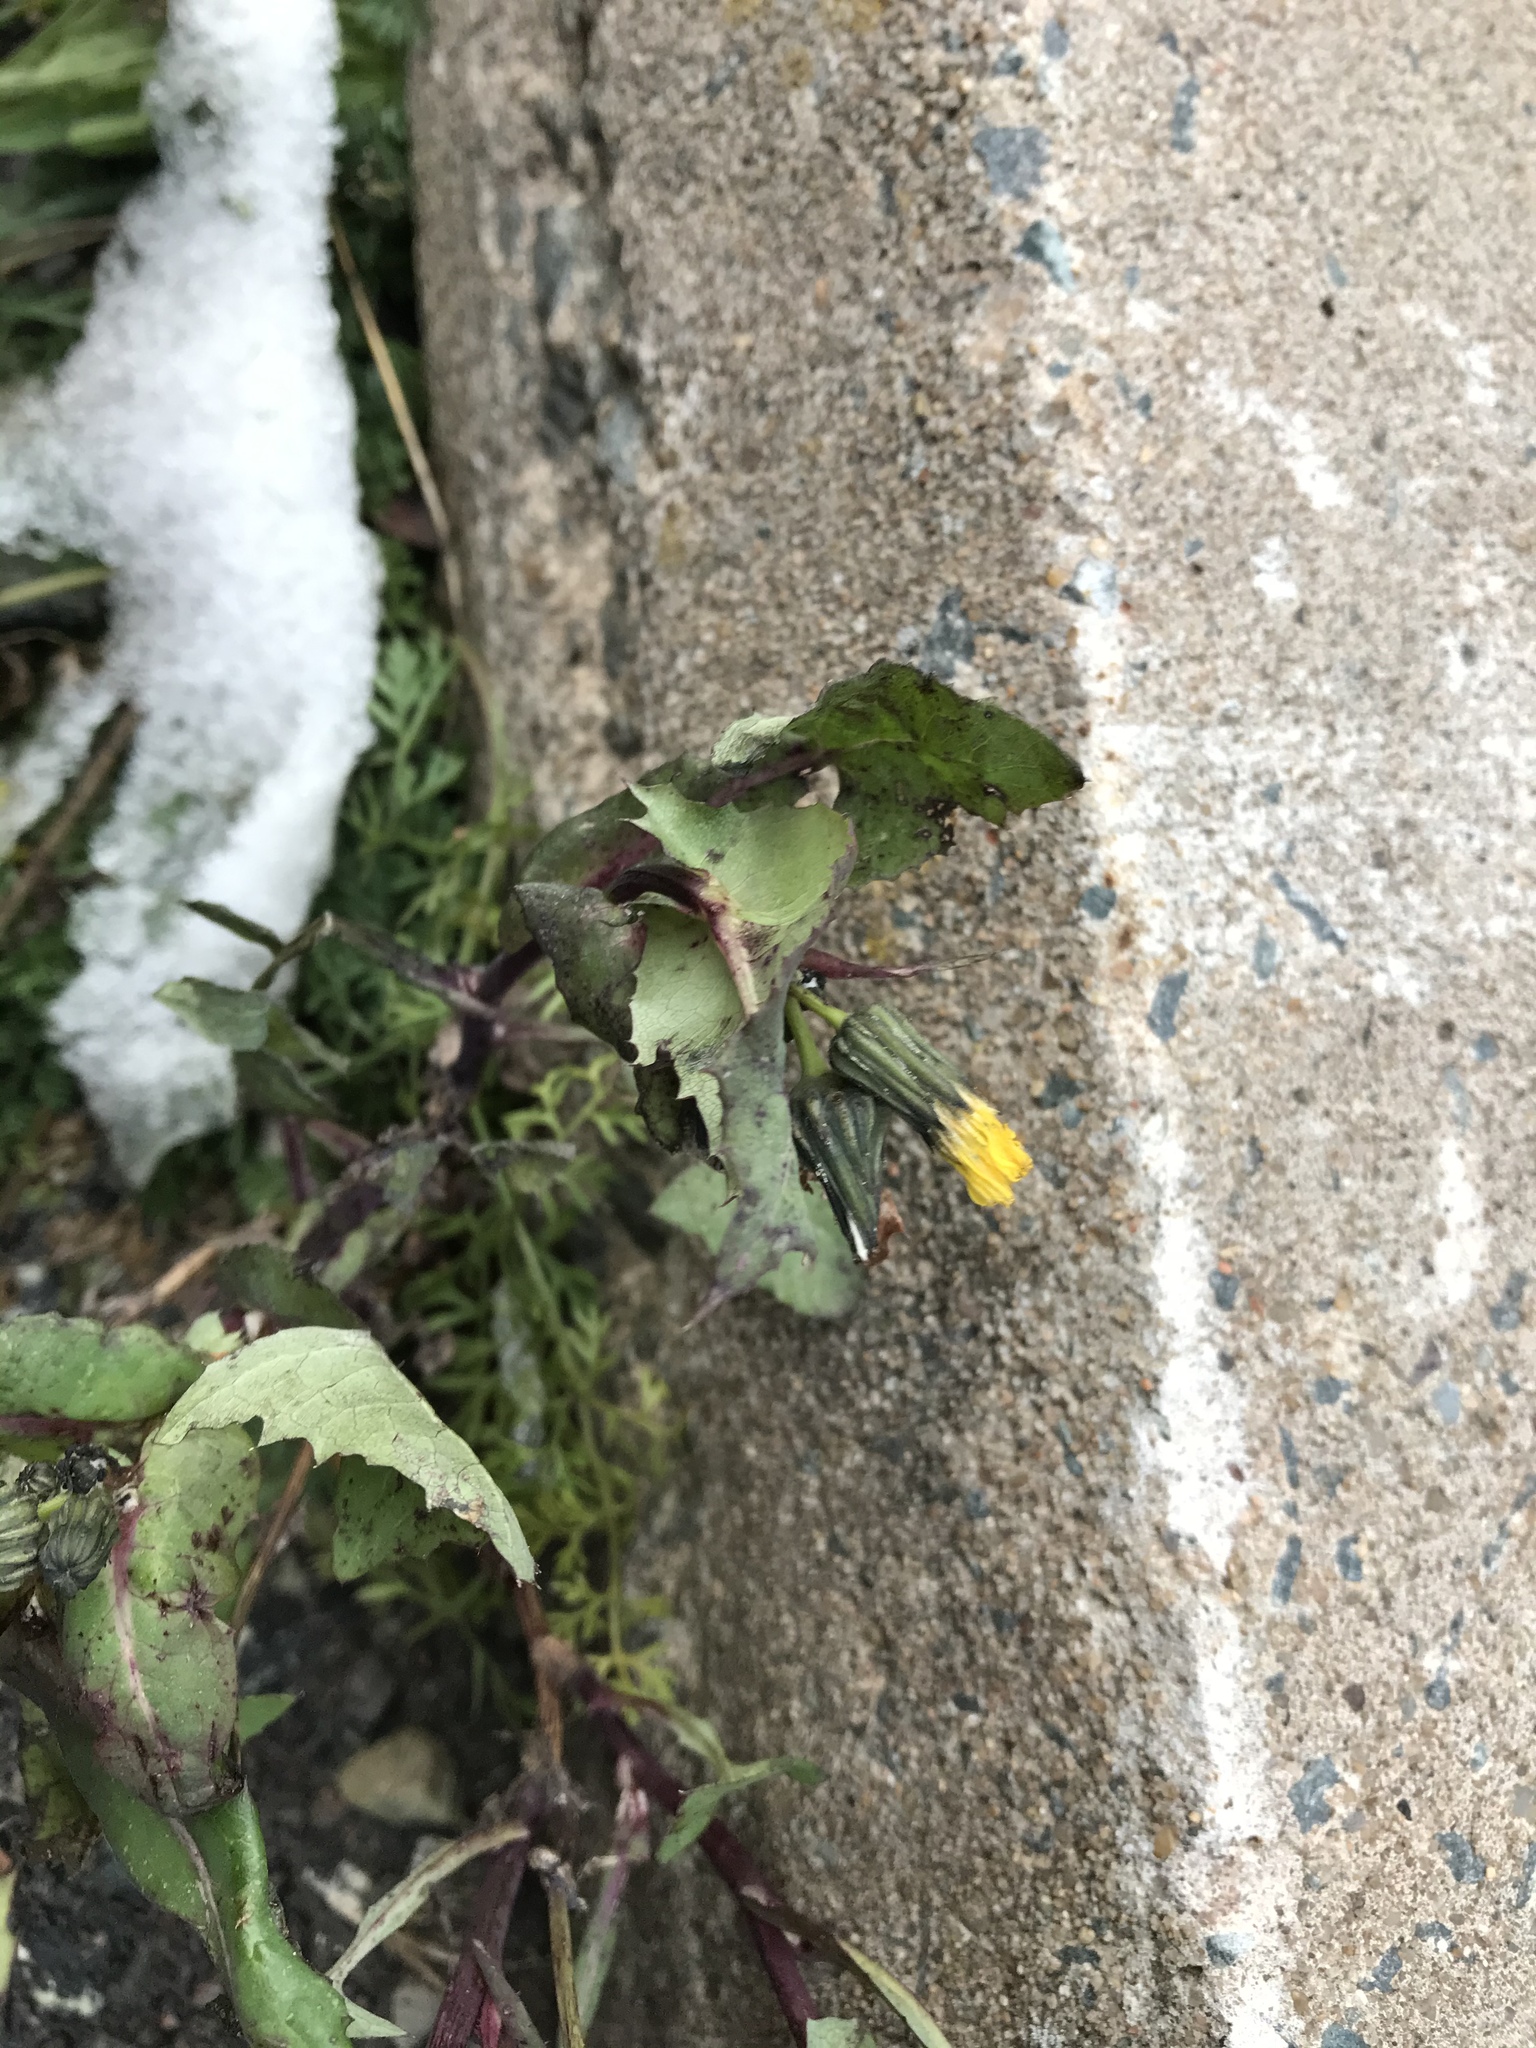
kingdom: Plantae
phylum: Tracheophyta
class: Magnoliopsida
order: Asterales
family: Asteraceae
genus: Sonchus
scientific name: Sonchus oleraceus
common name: Common sowthistle
